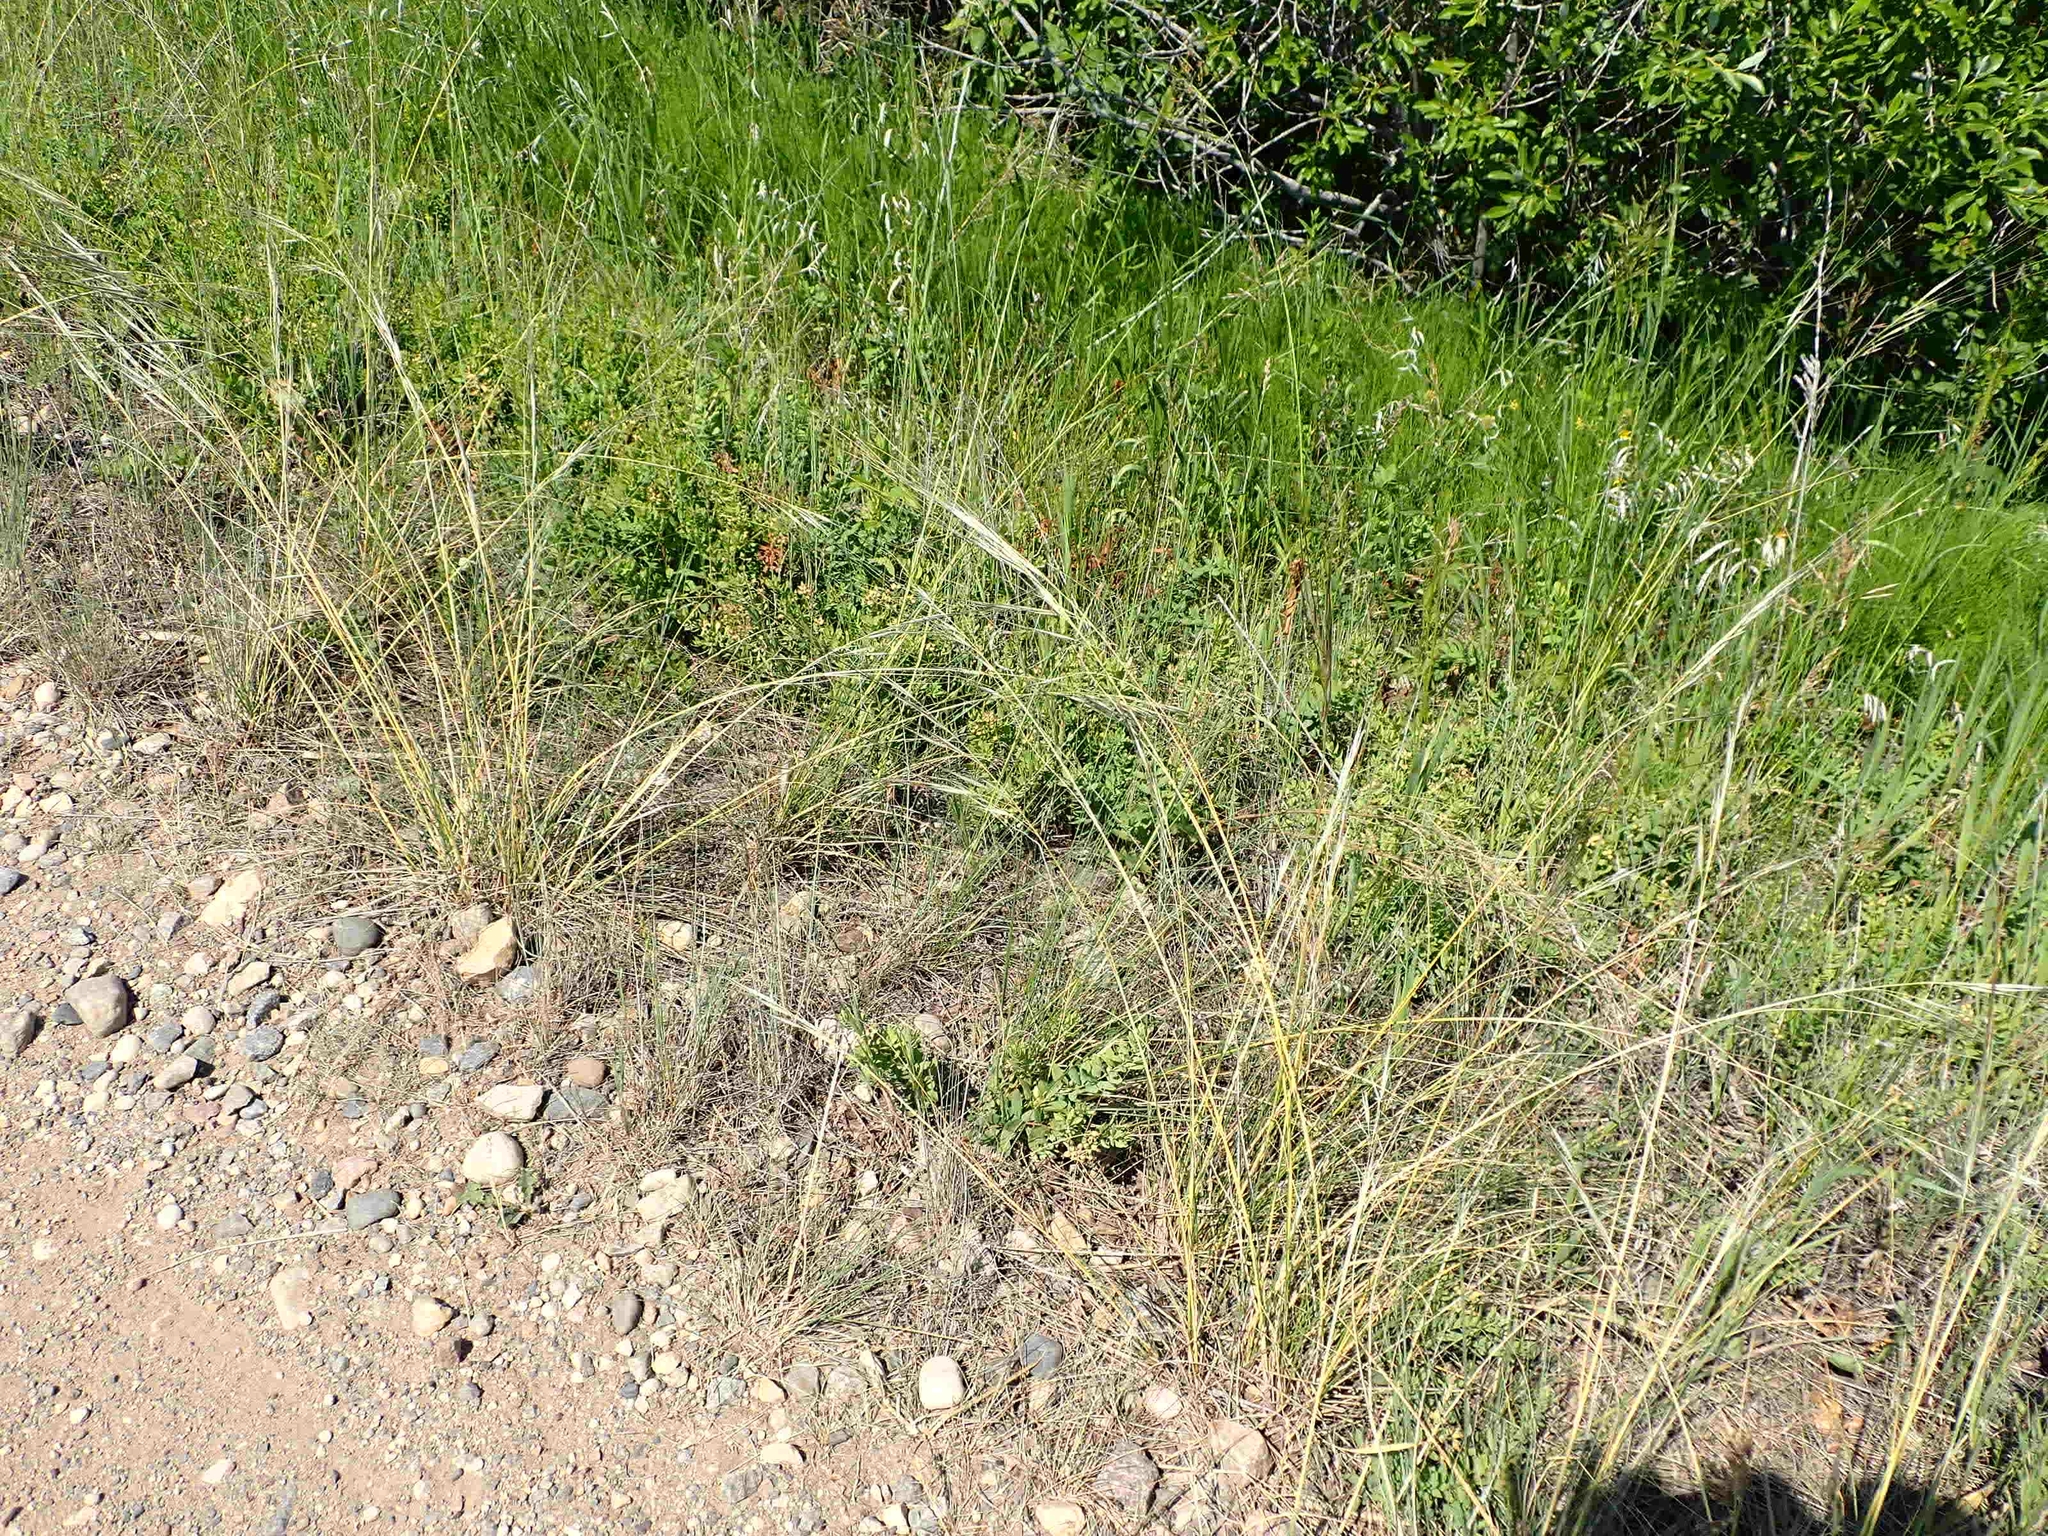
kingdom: Plantae
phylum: Tracheophyta
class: Liliopsida
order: Poales
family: Poaceae
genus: Hesperostipa
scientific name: Hesperostipa spartea
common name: Porcupine grass
